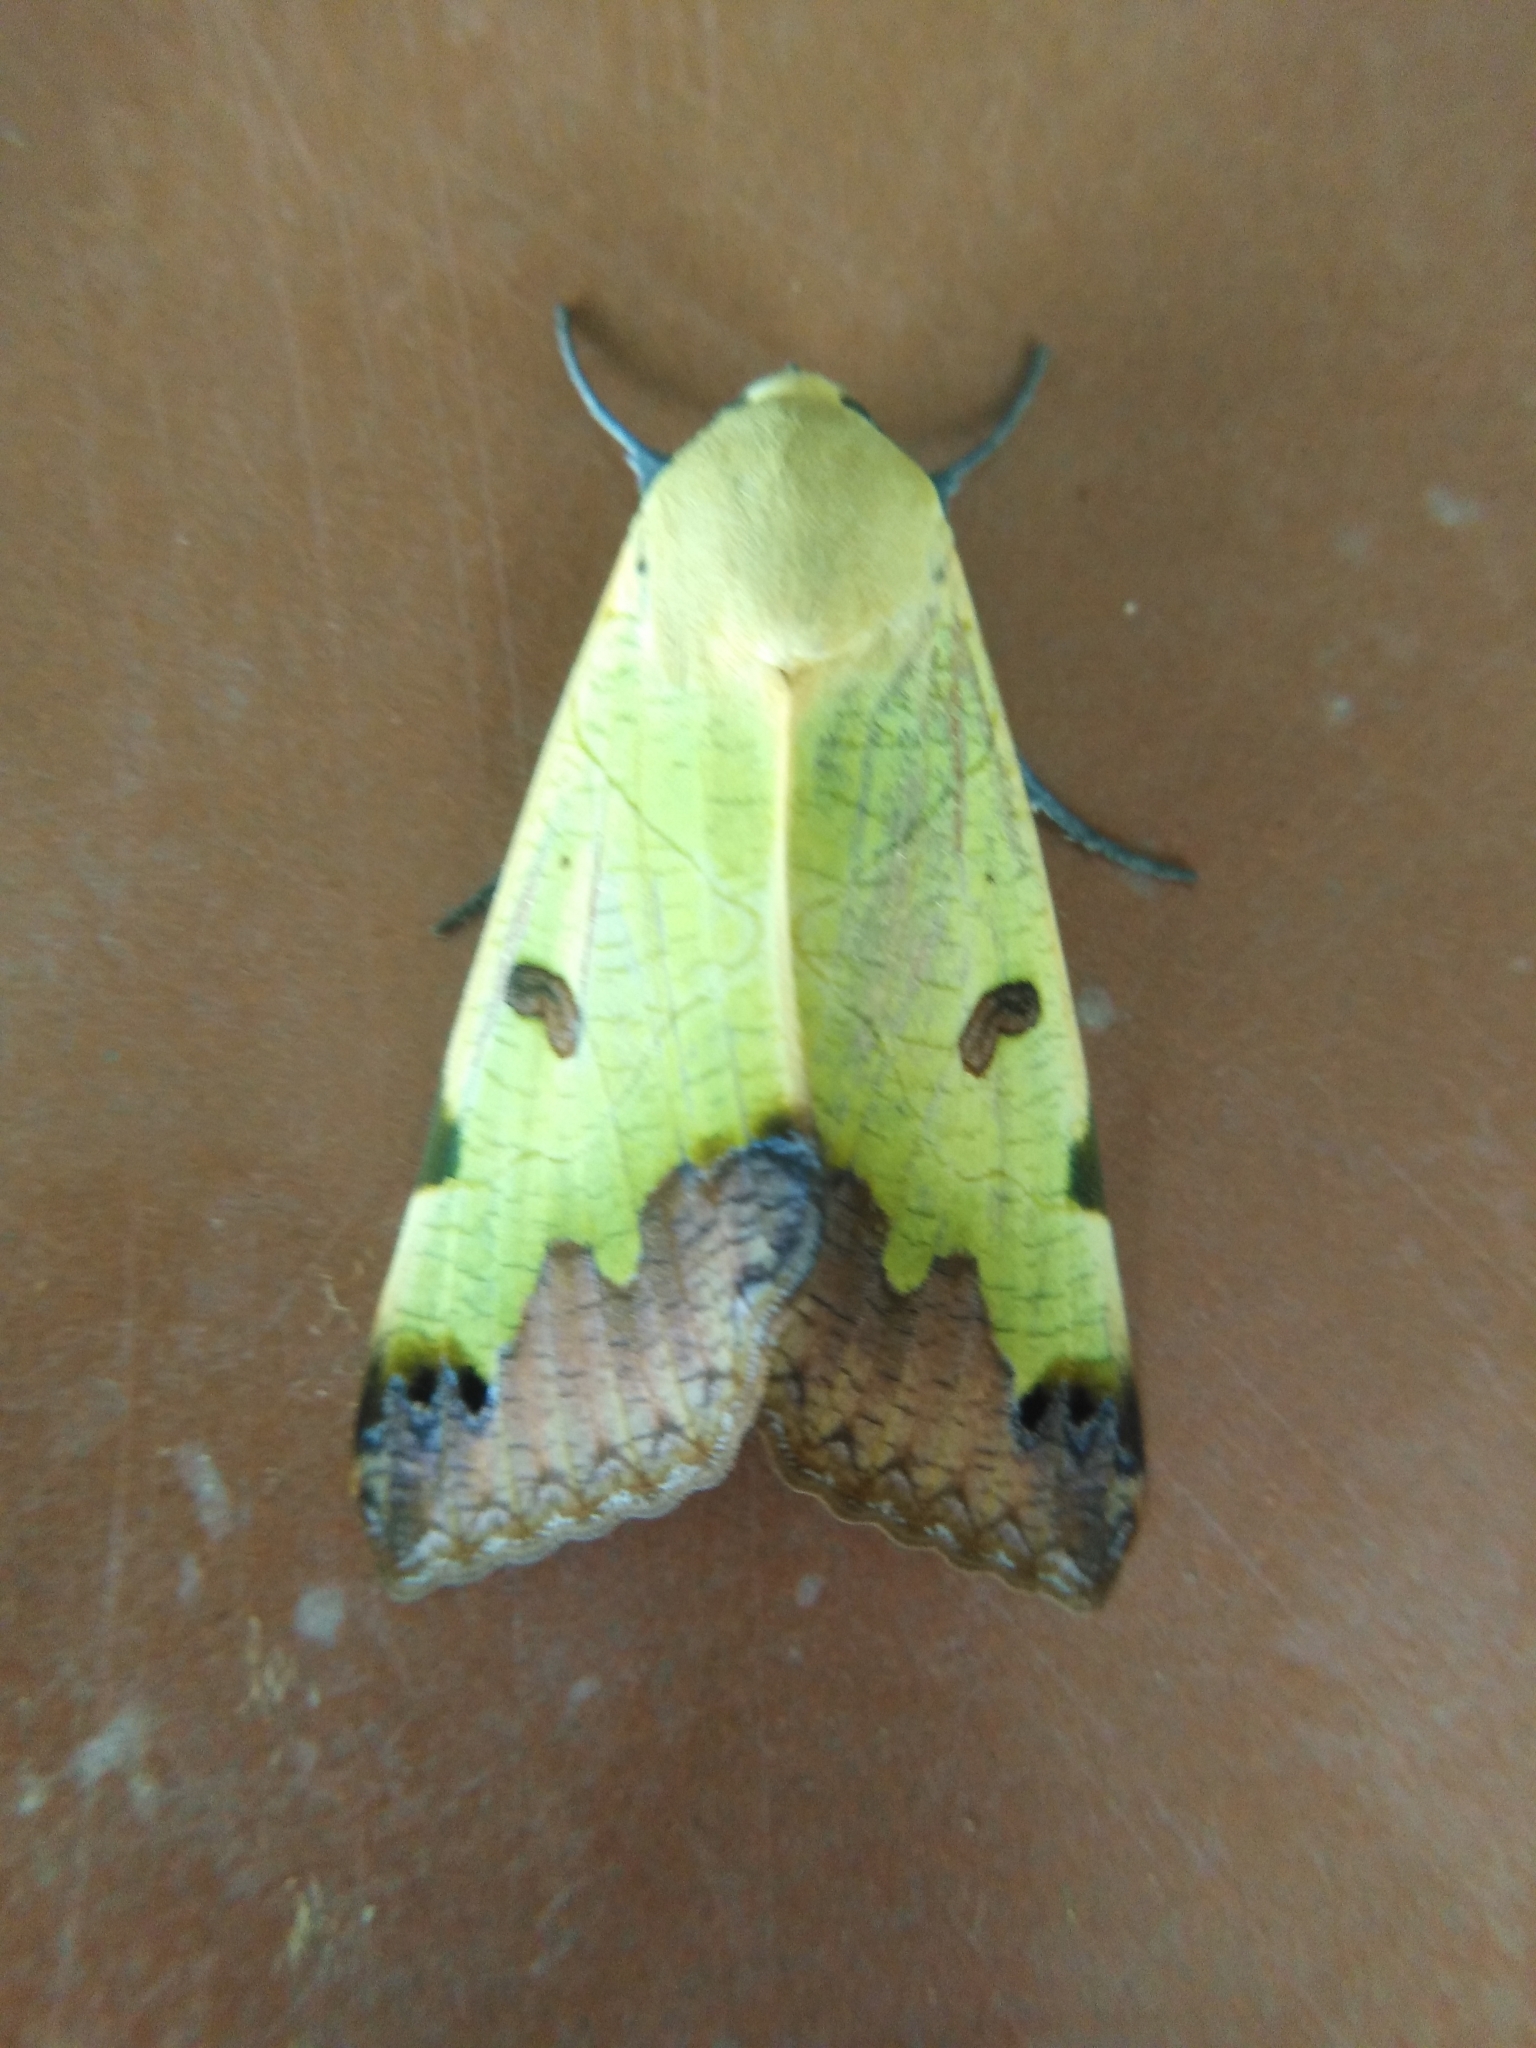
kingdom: Animalia
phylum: Arthropoda
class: Insecta
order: Lepidoptera
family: Erebidae
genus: Ophiusa
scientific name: Ophiusa tirhaca
